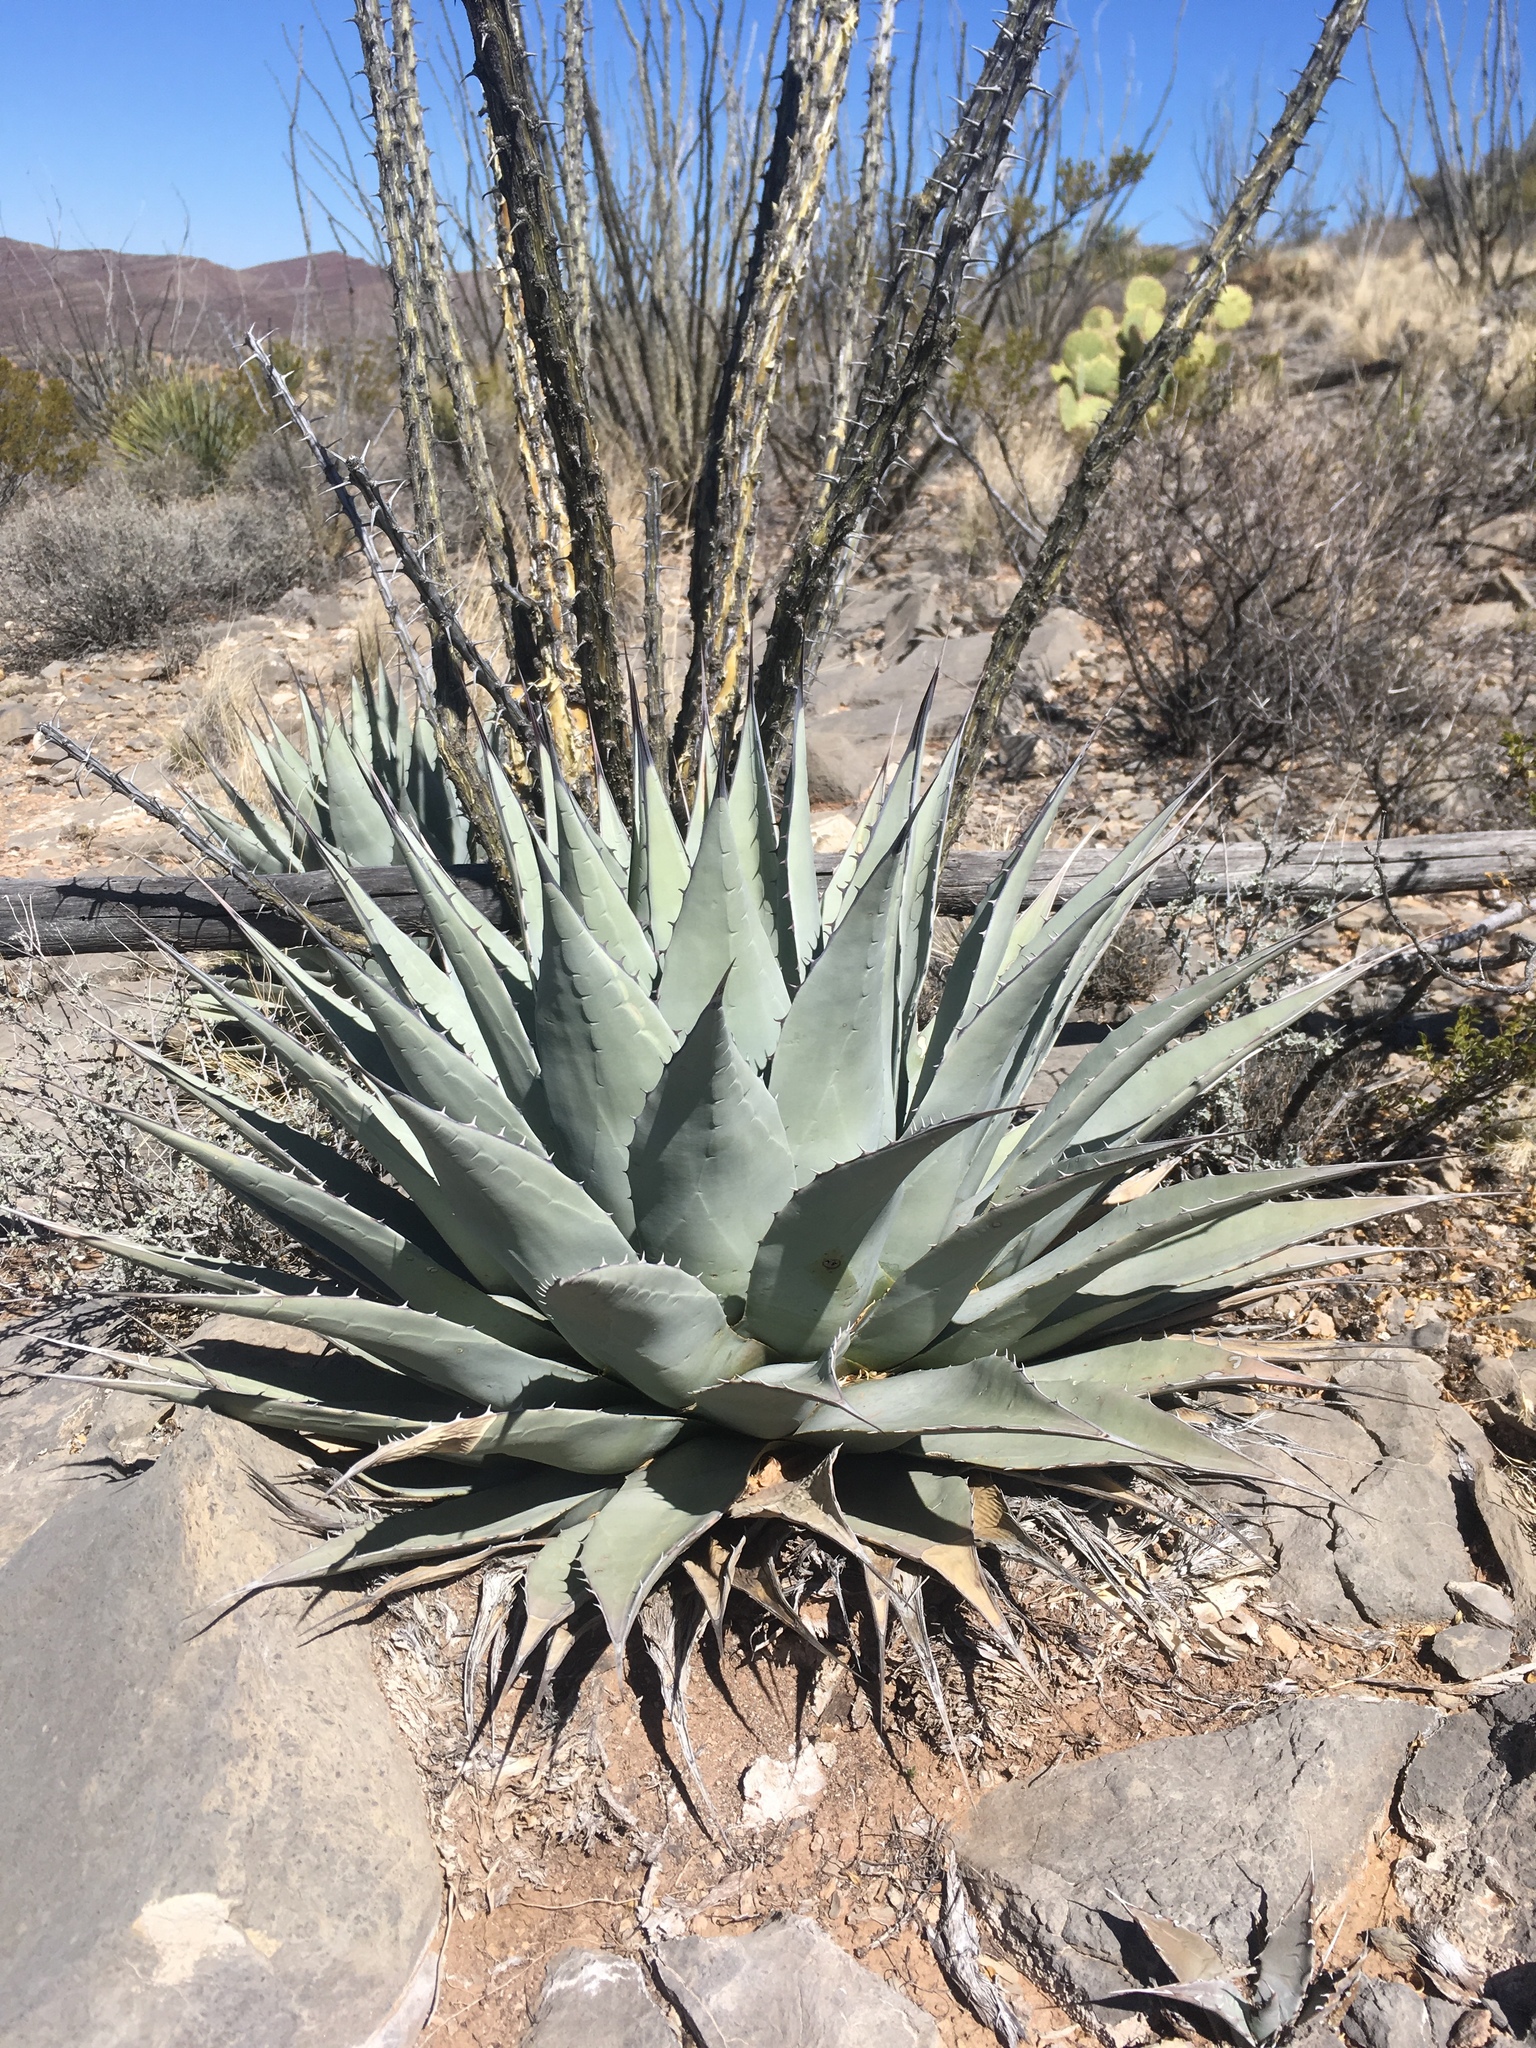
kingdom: Plantae
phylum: Tracheophyta
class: Liliopsida
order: Asparagales
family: Asparagaceae
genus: Agave
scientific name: Agave parryi
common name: Parry's agave
